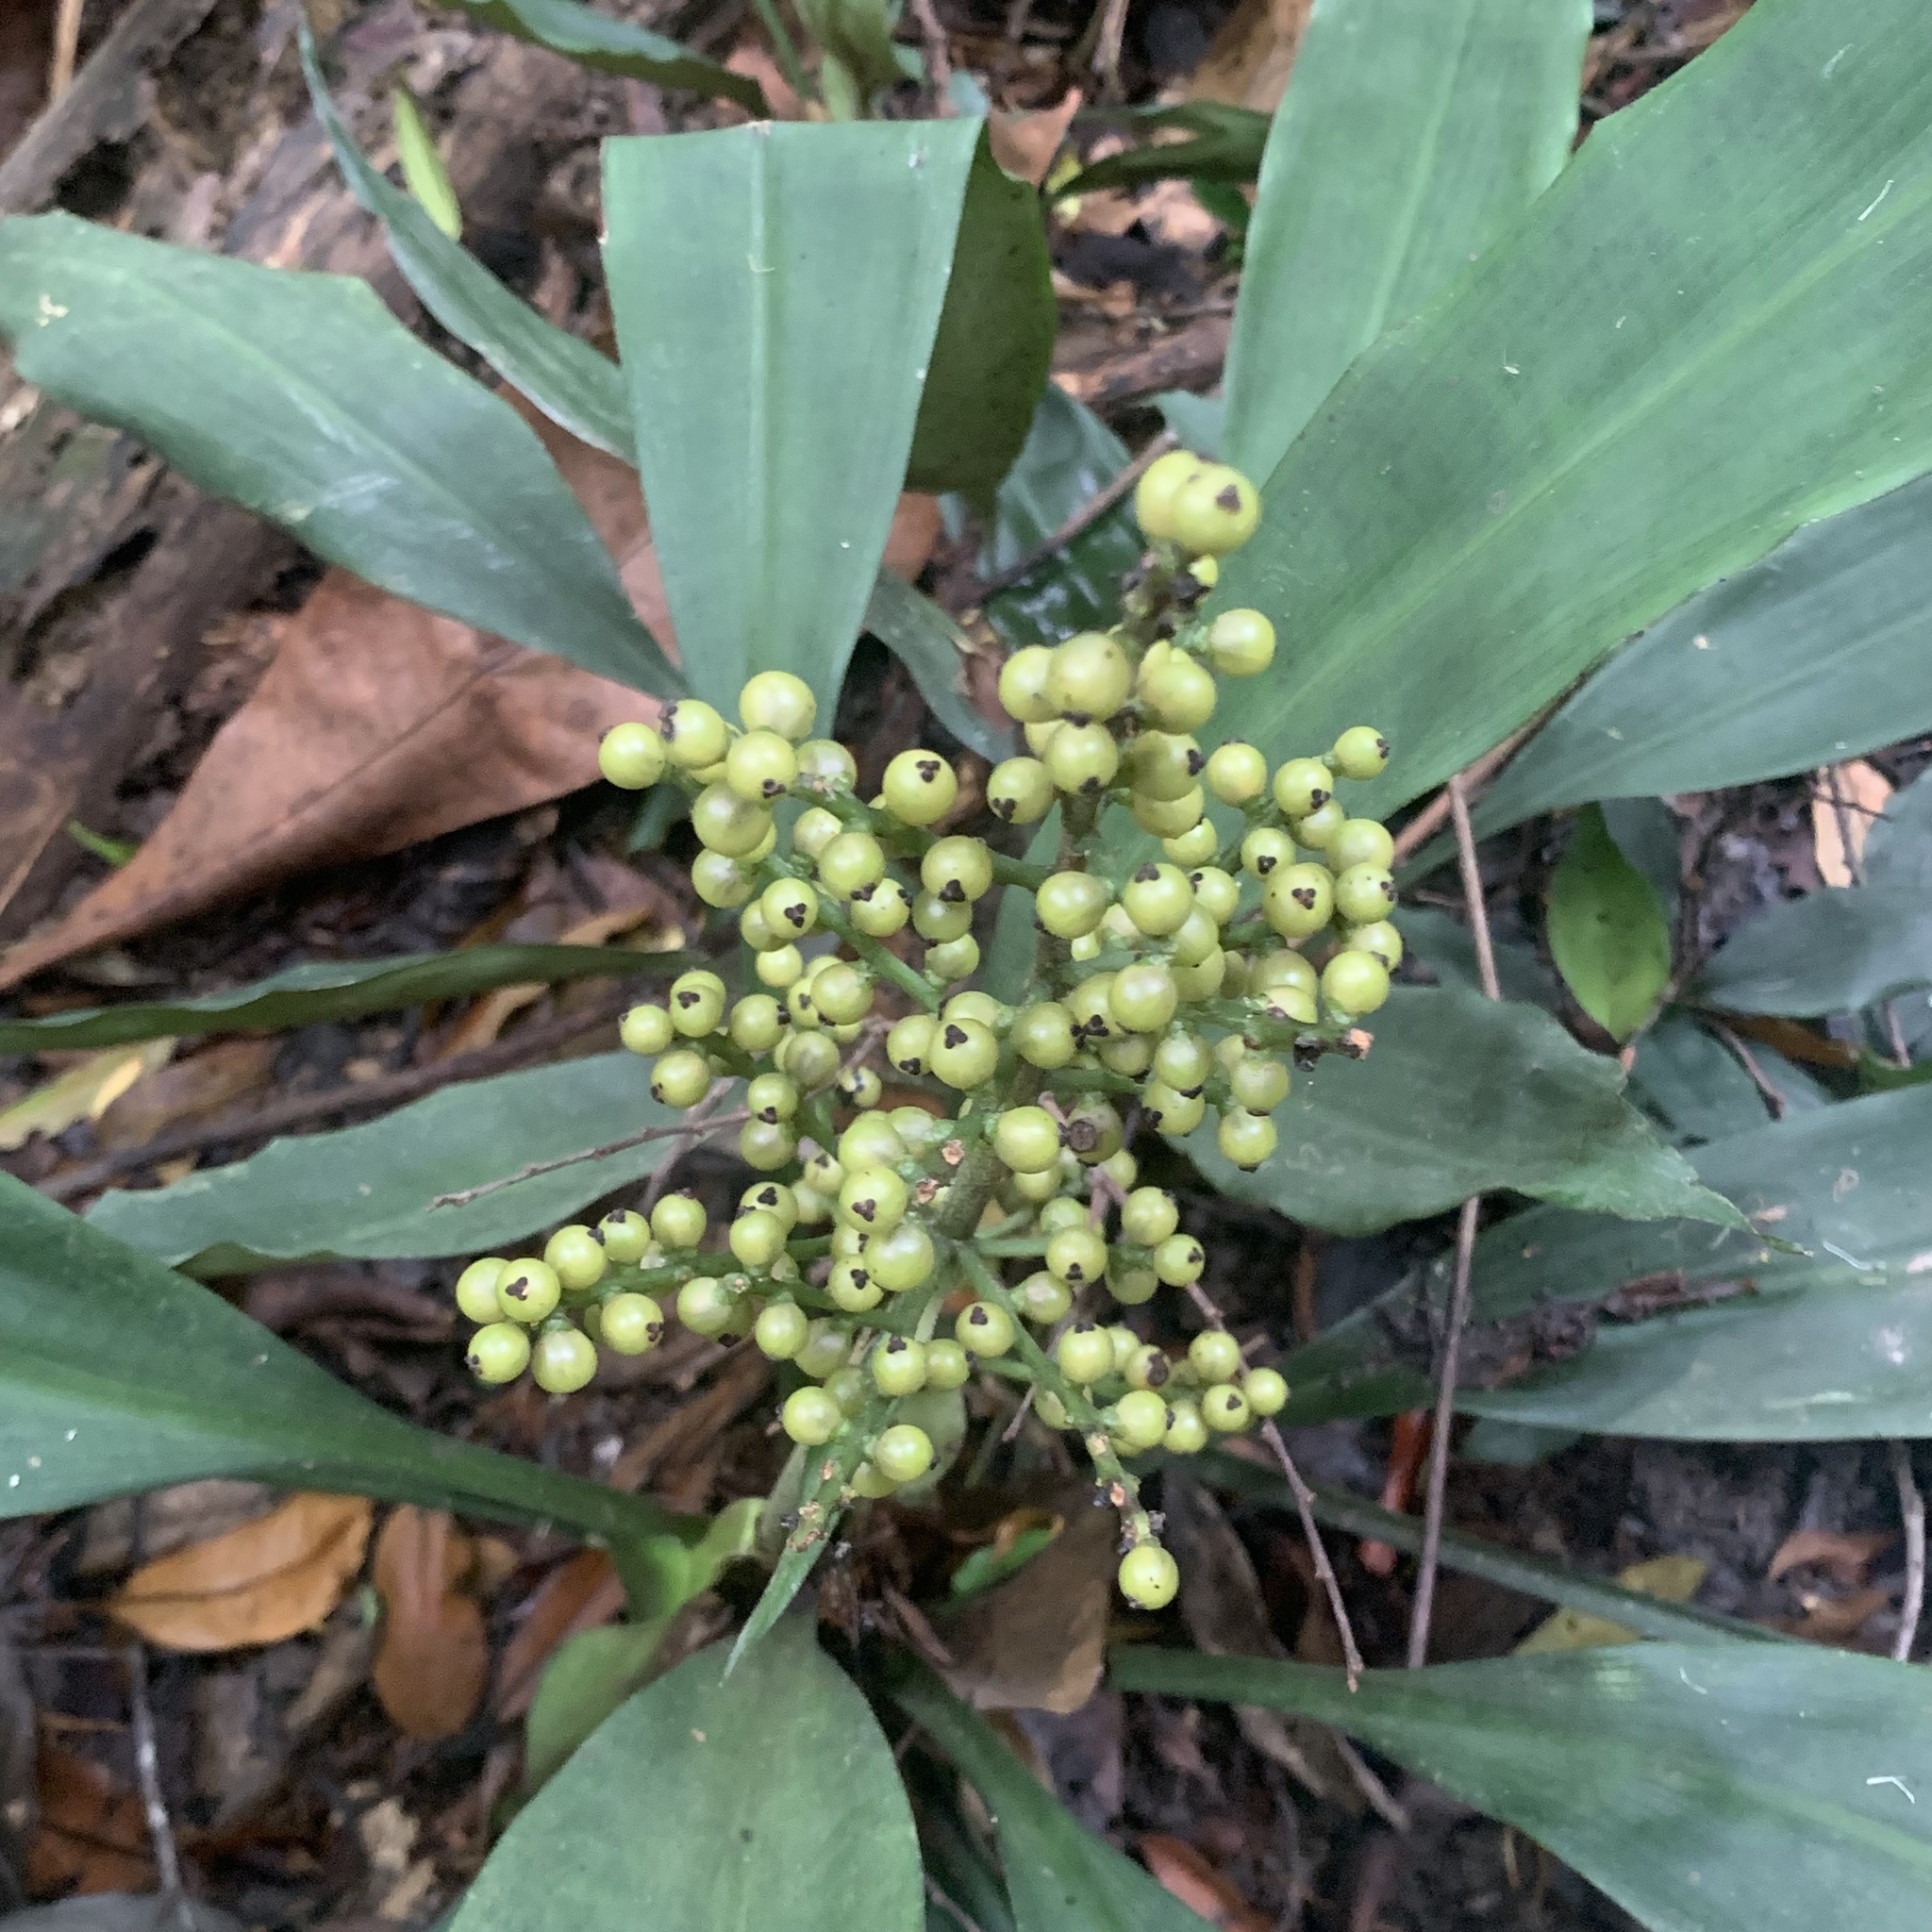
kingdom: Plantae
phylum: Tracheophyta
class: Liliopsida
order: Commelinales
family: Hanguanaceae
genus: Hanguana
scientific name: Hanguana neglecta
